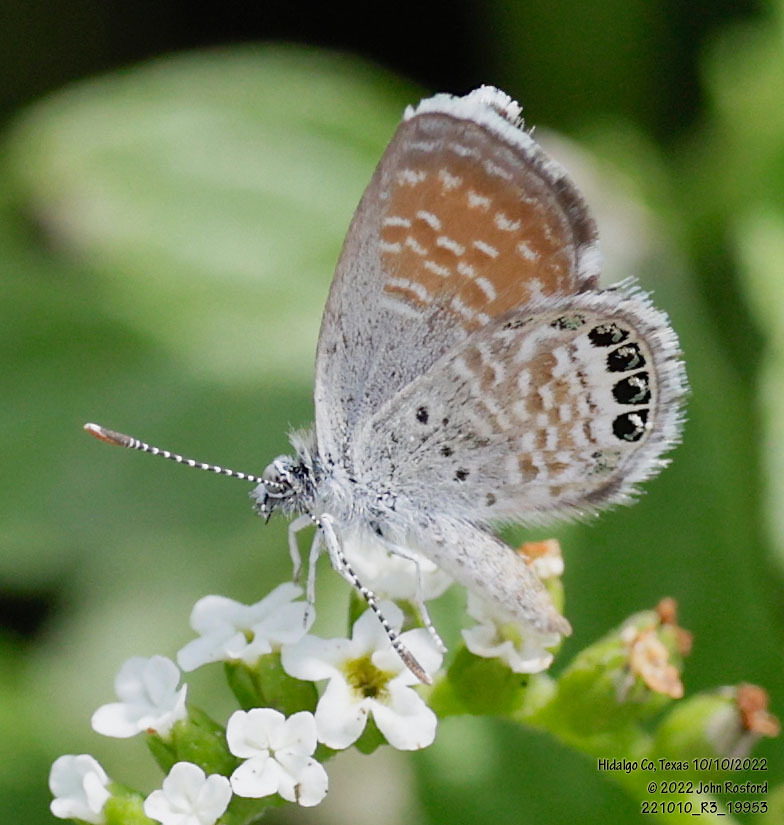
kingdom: Animalia
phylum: Arthropoda
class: Insecta
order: Lepidoptera
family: Lycaenidae
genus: Brephidium
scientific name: Brephidium exilis
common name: Pygmy blue
